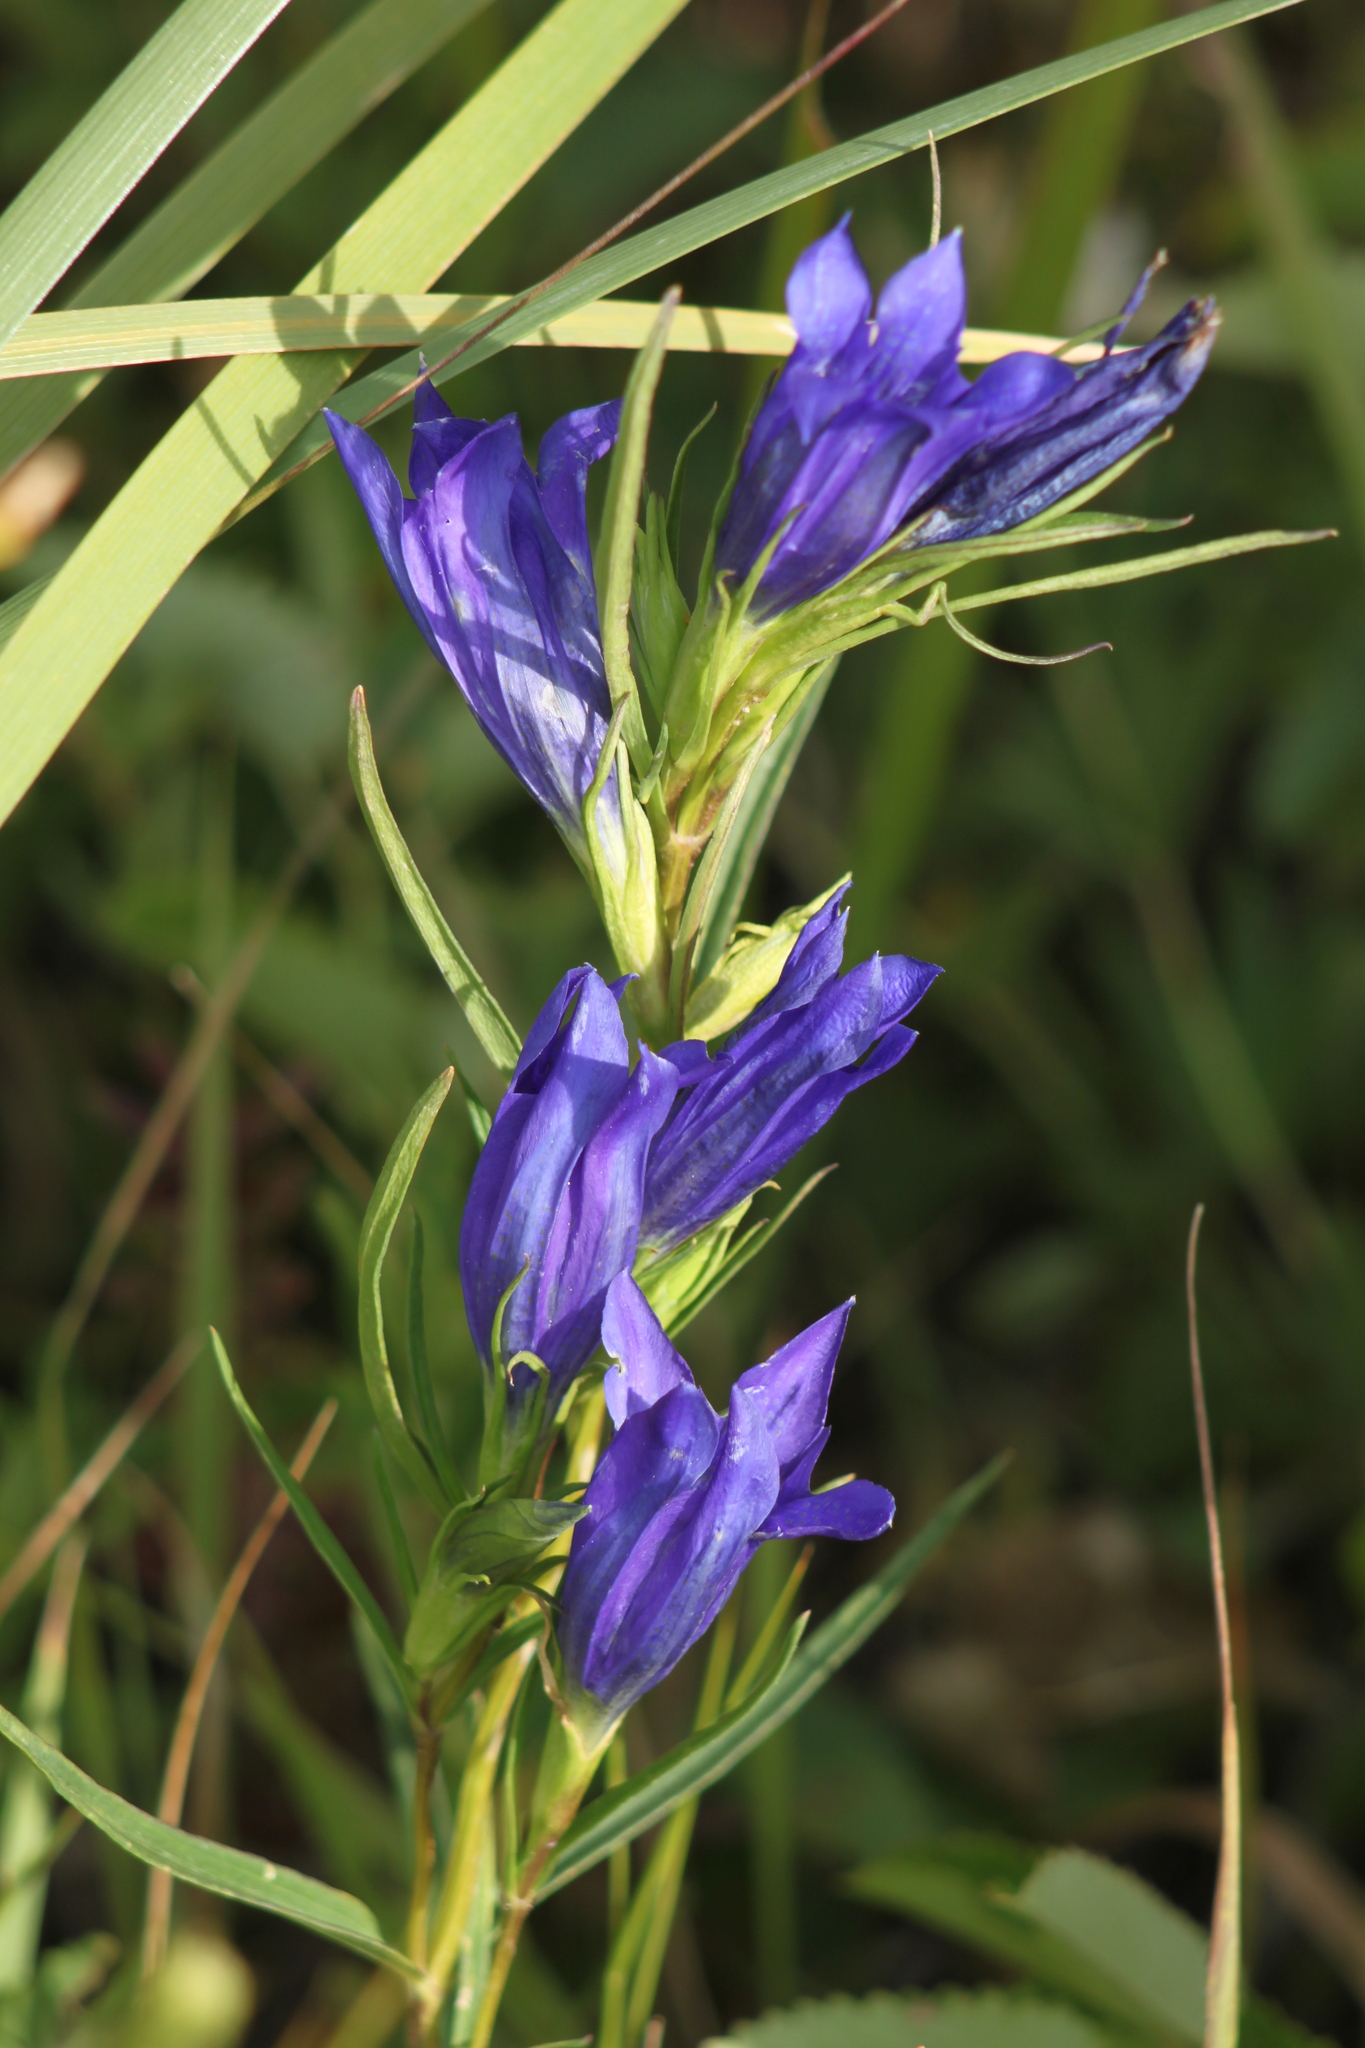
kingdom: Plantae
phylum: Tracheophyta
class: Magnoliopsida
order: Gentianales
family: Gentianaceae
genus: Gentiana
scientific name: Gentiana pneumonanthe
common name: Marsh gentian
